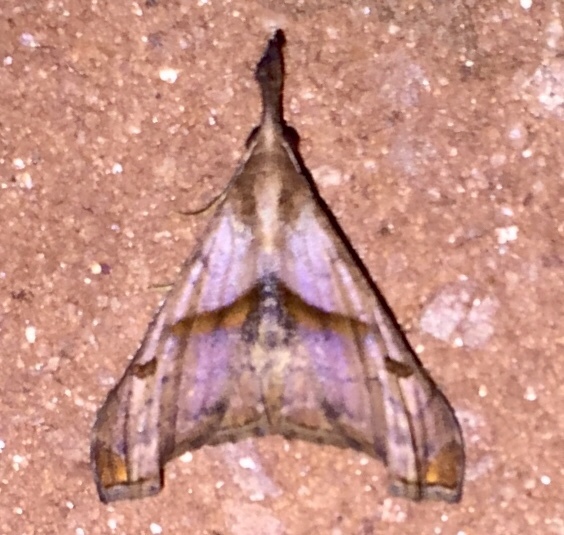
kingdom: Animalia
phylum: Arthropoda
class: Insecta
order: Lepidoptera
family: Erebidae
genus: Palthis
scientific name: Palthis angulalis
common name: Dark-spotted palthis moth
